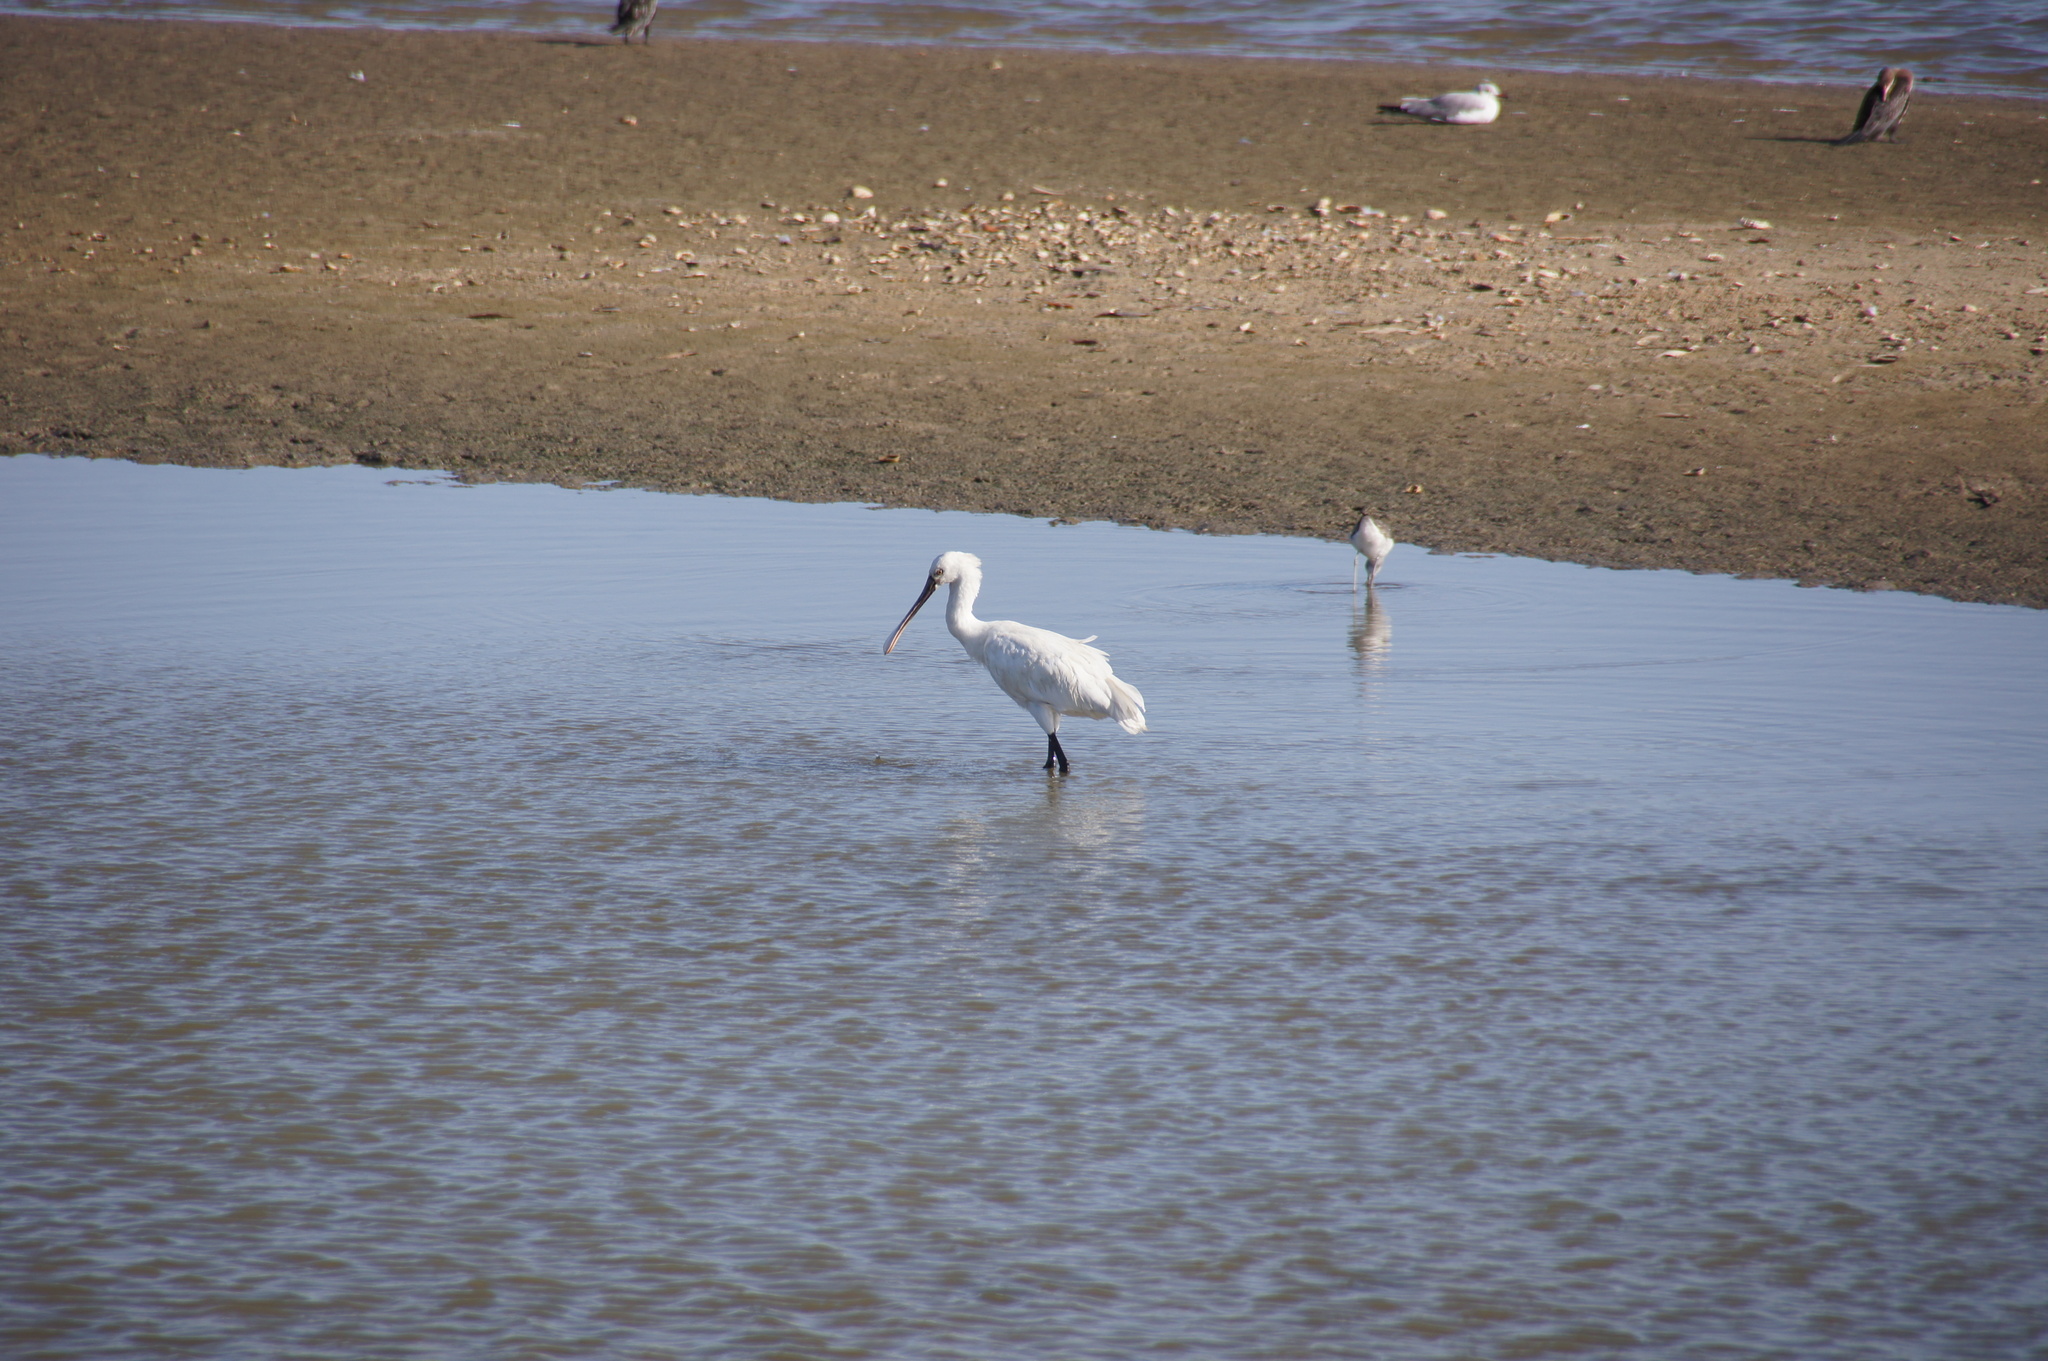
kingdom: Animalia
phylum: Chordata
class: Aves
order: Pelecaniformes
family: Threskiornithidae
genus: Platalea
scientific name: Platalea leucorodia
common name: Eurasian spoonbill
